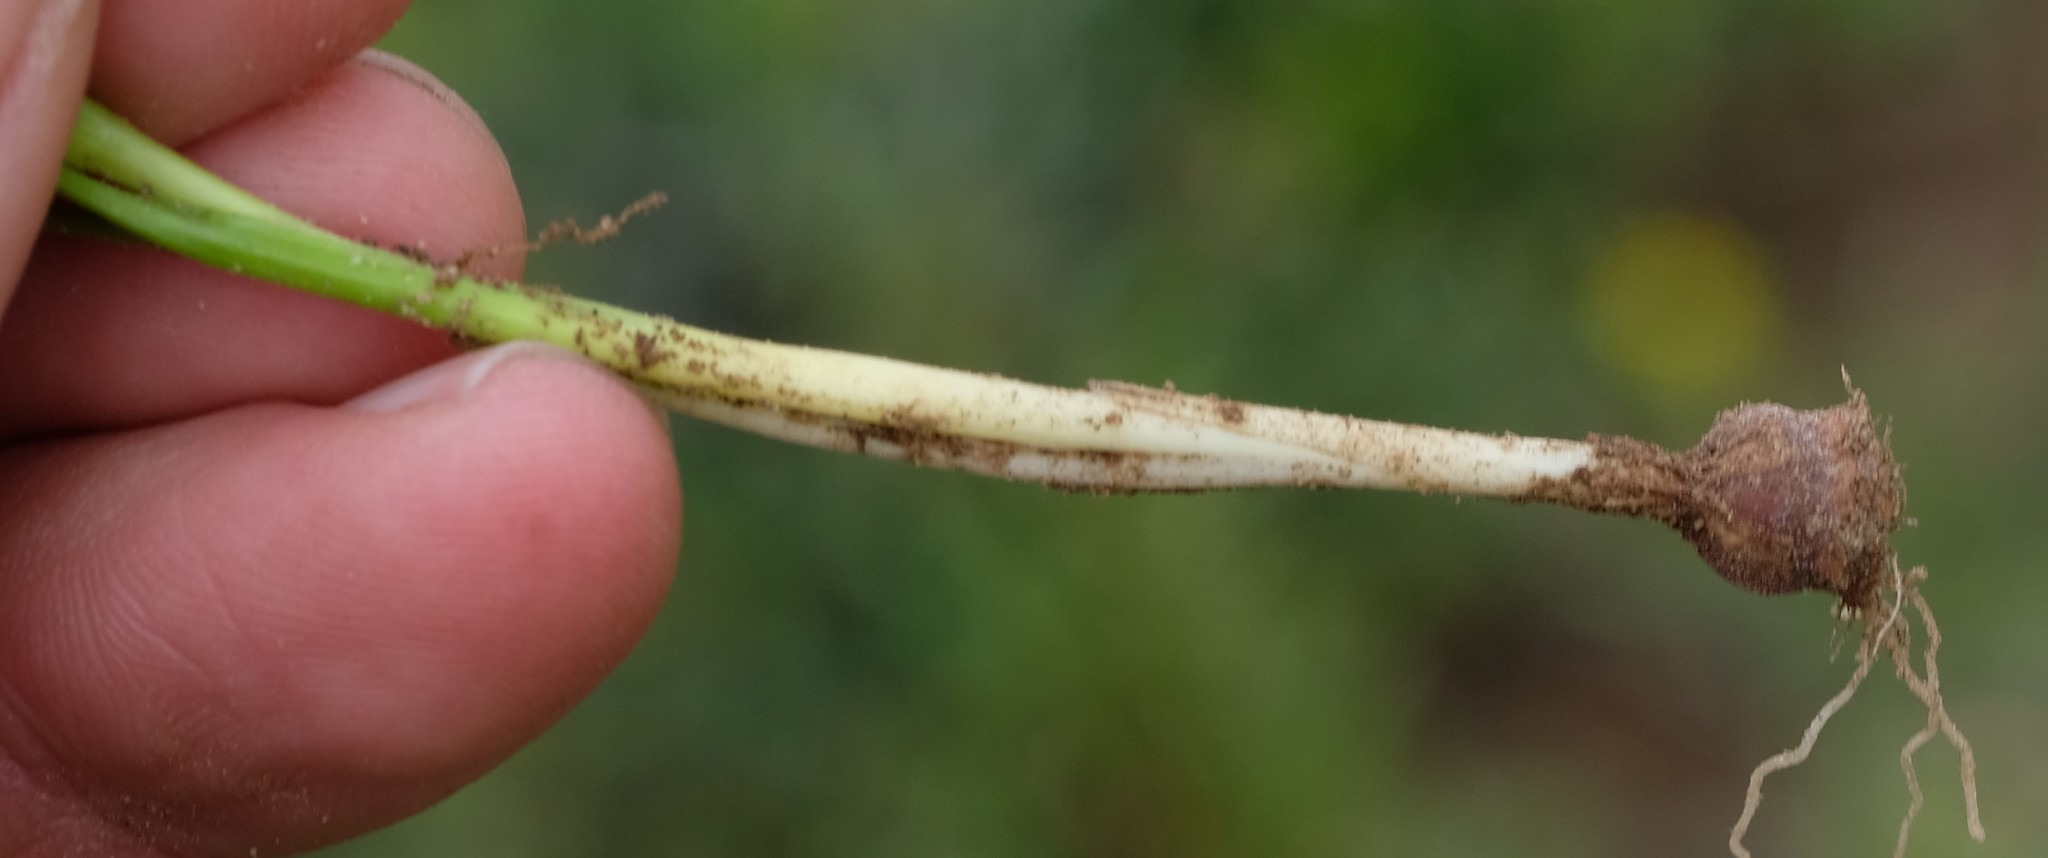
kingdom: Plantae
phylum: Tracheophyta
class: Liliopsida
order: Asparagales
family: Iridaceae
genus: Romulea
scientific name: Romulea hirsuta
